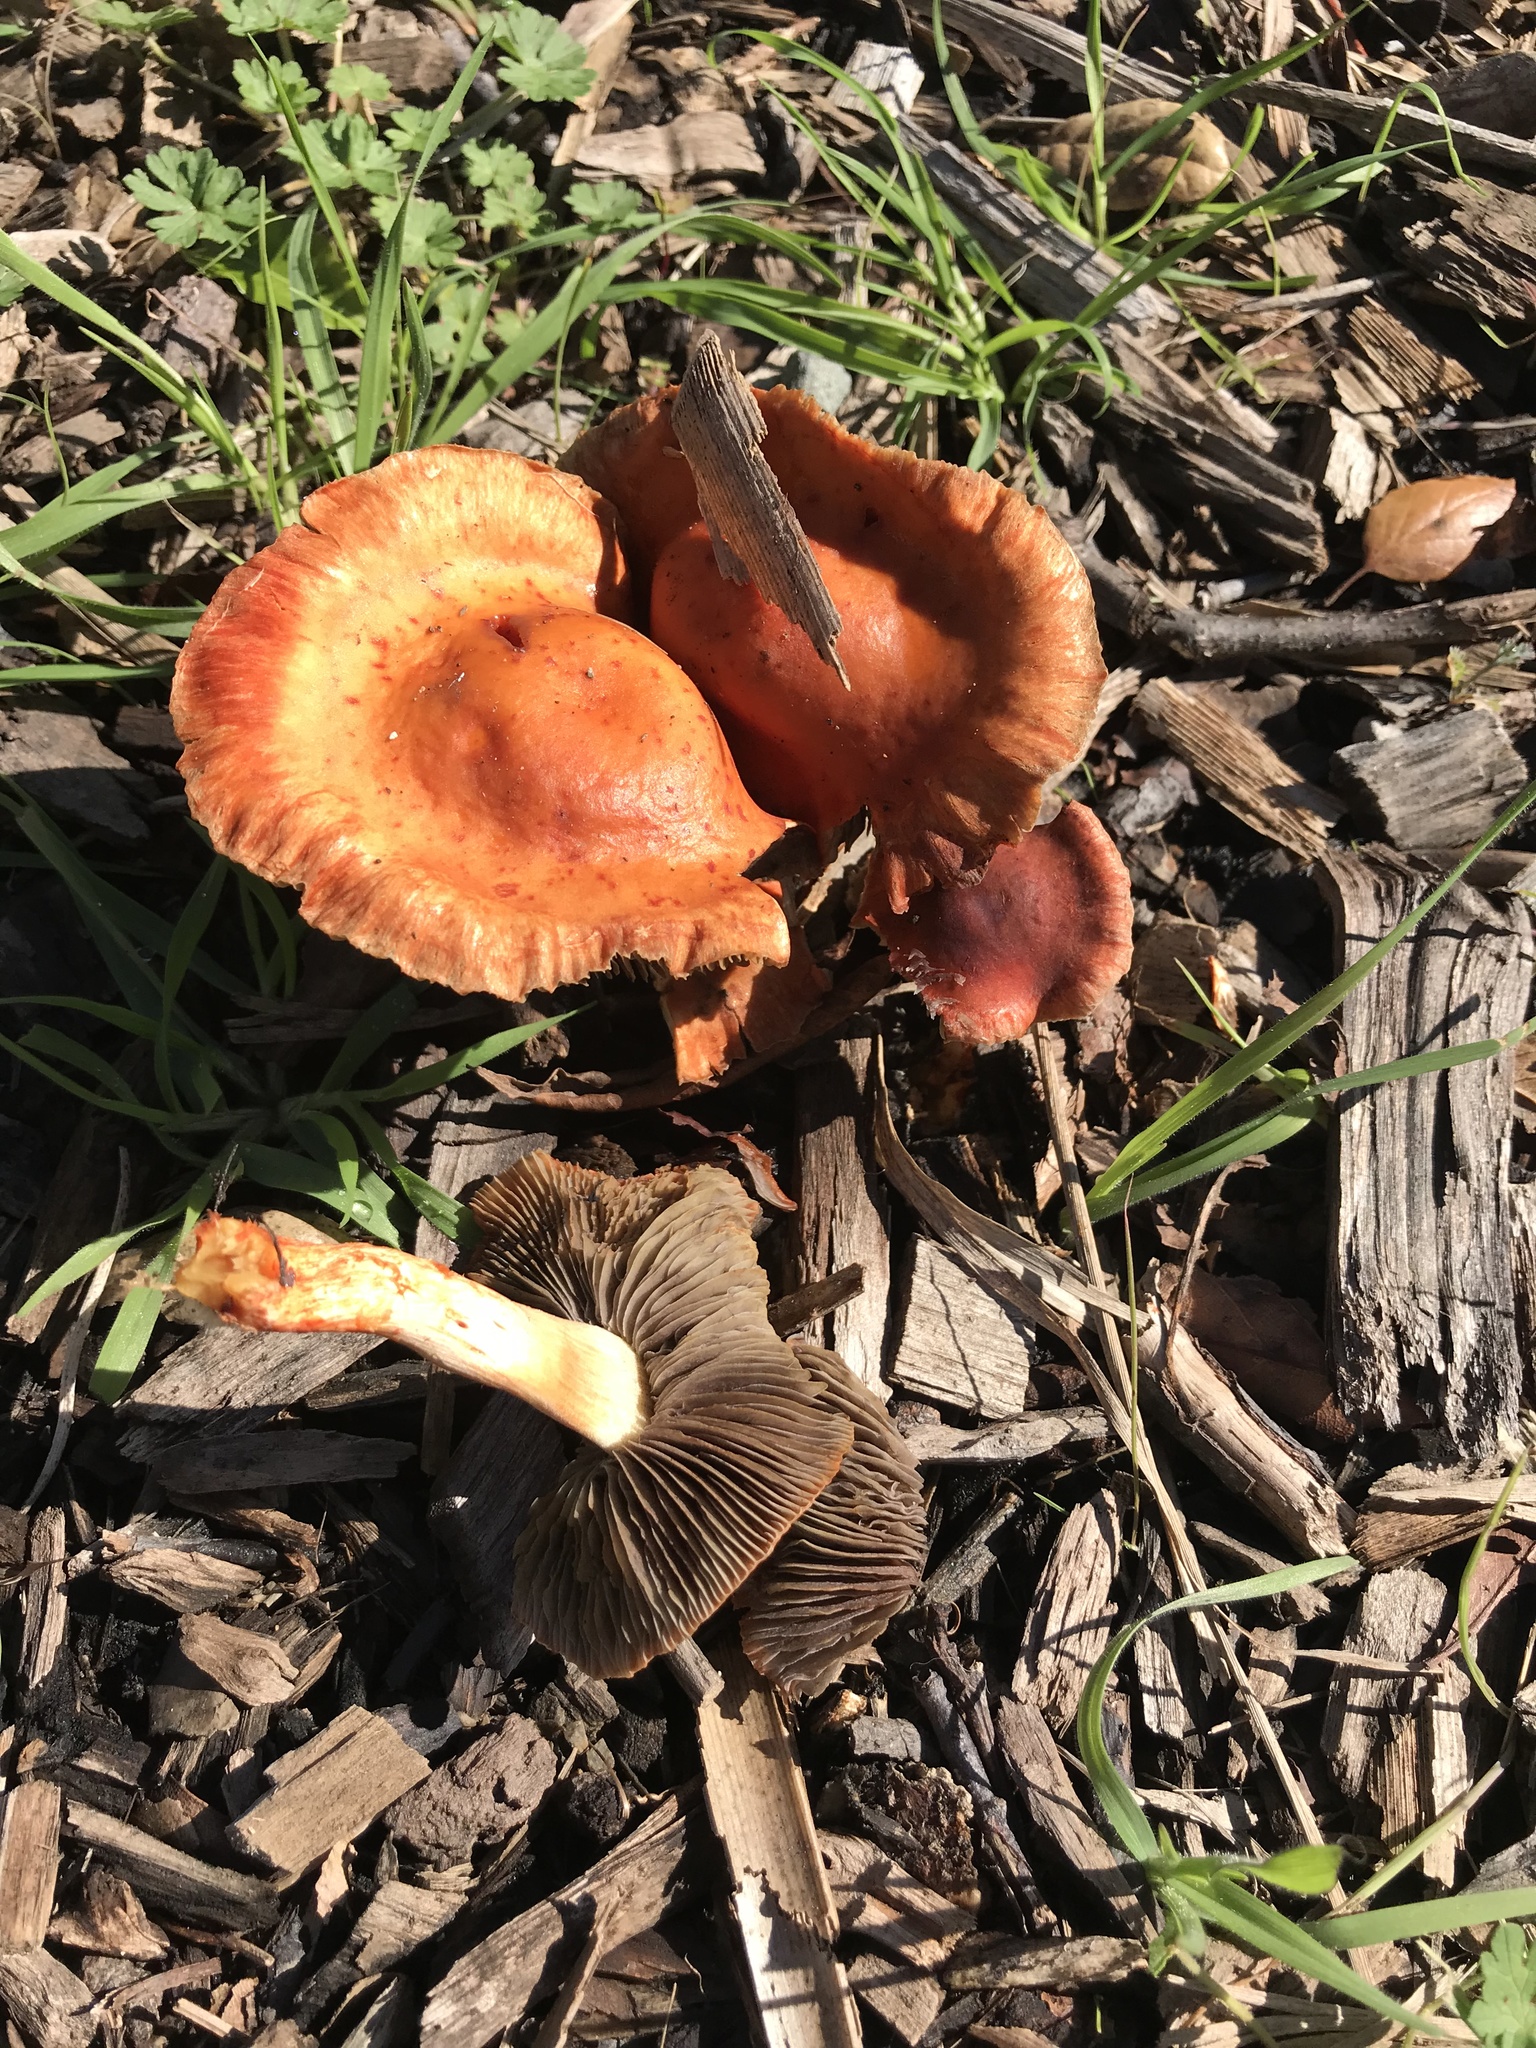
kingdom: Fungi
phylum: Basidiomycota
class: Agaricomycetes
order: Agaricales
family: Strophariaceae
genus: Leratiomyces
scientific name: Leratiomyces ceres
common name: Redlead roundhead
